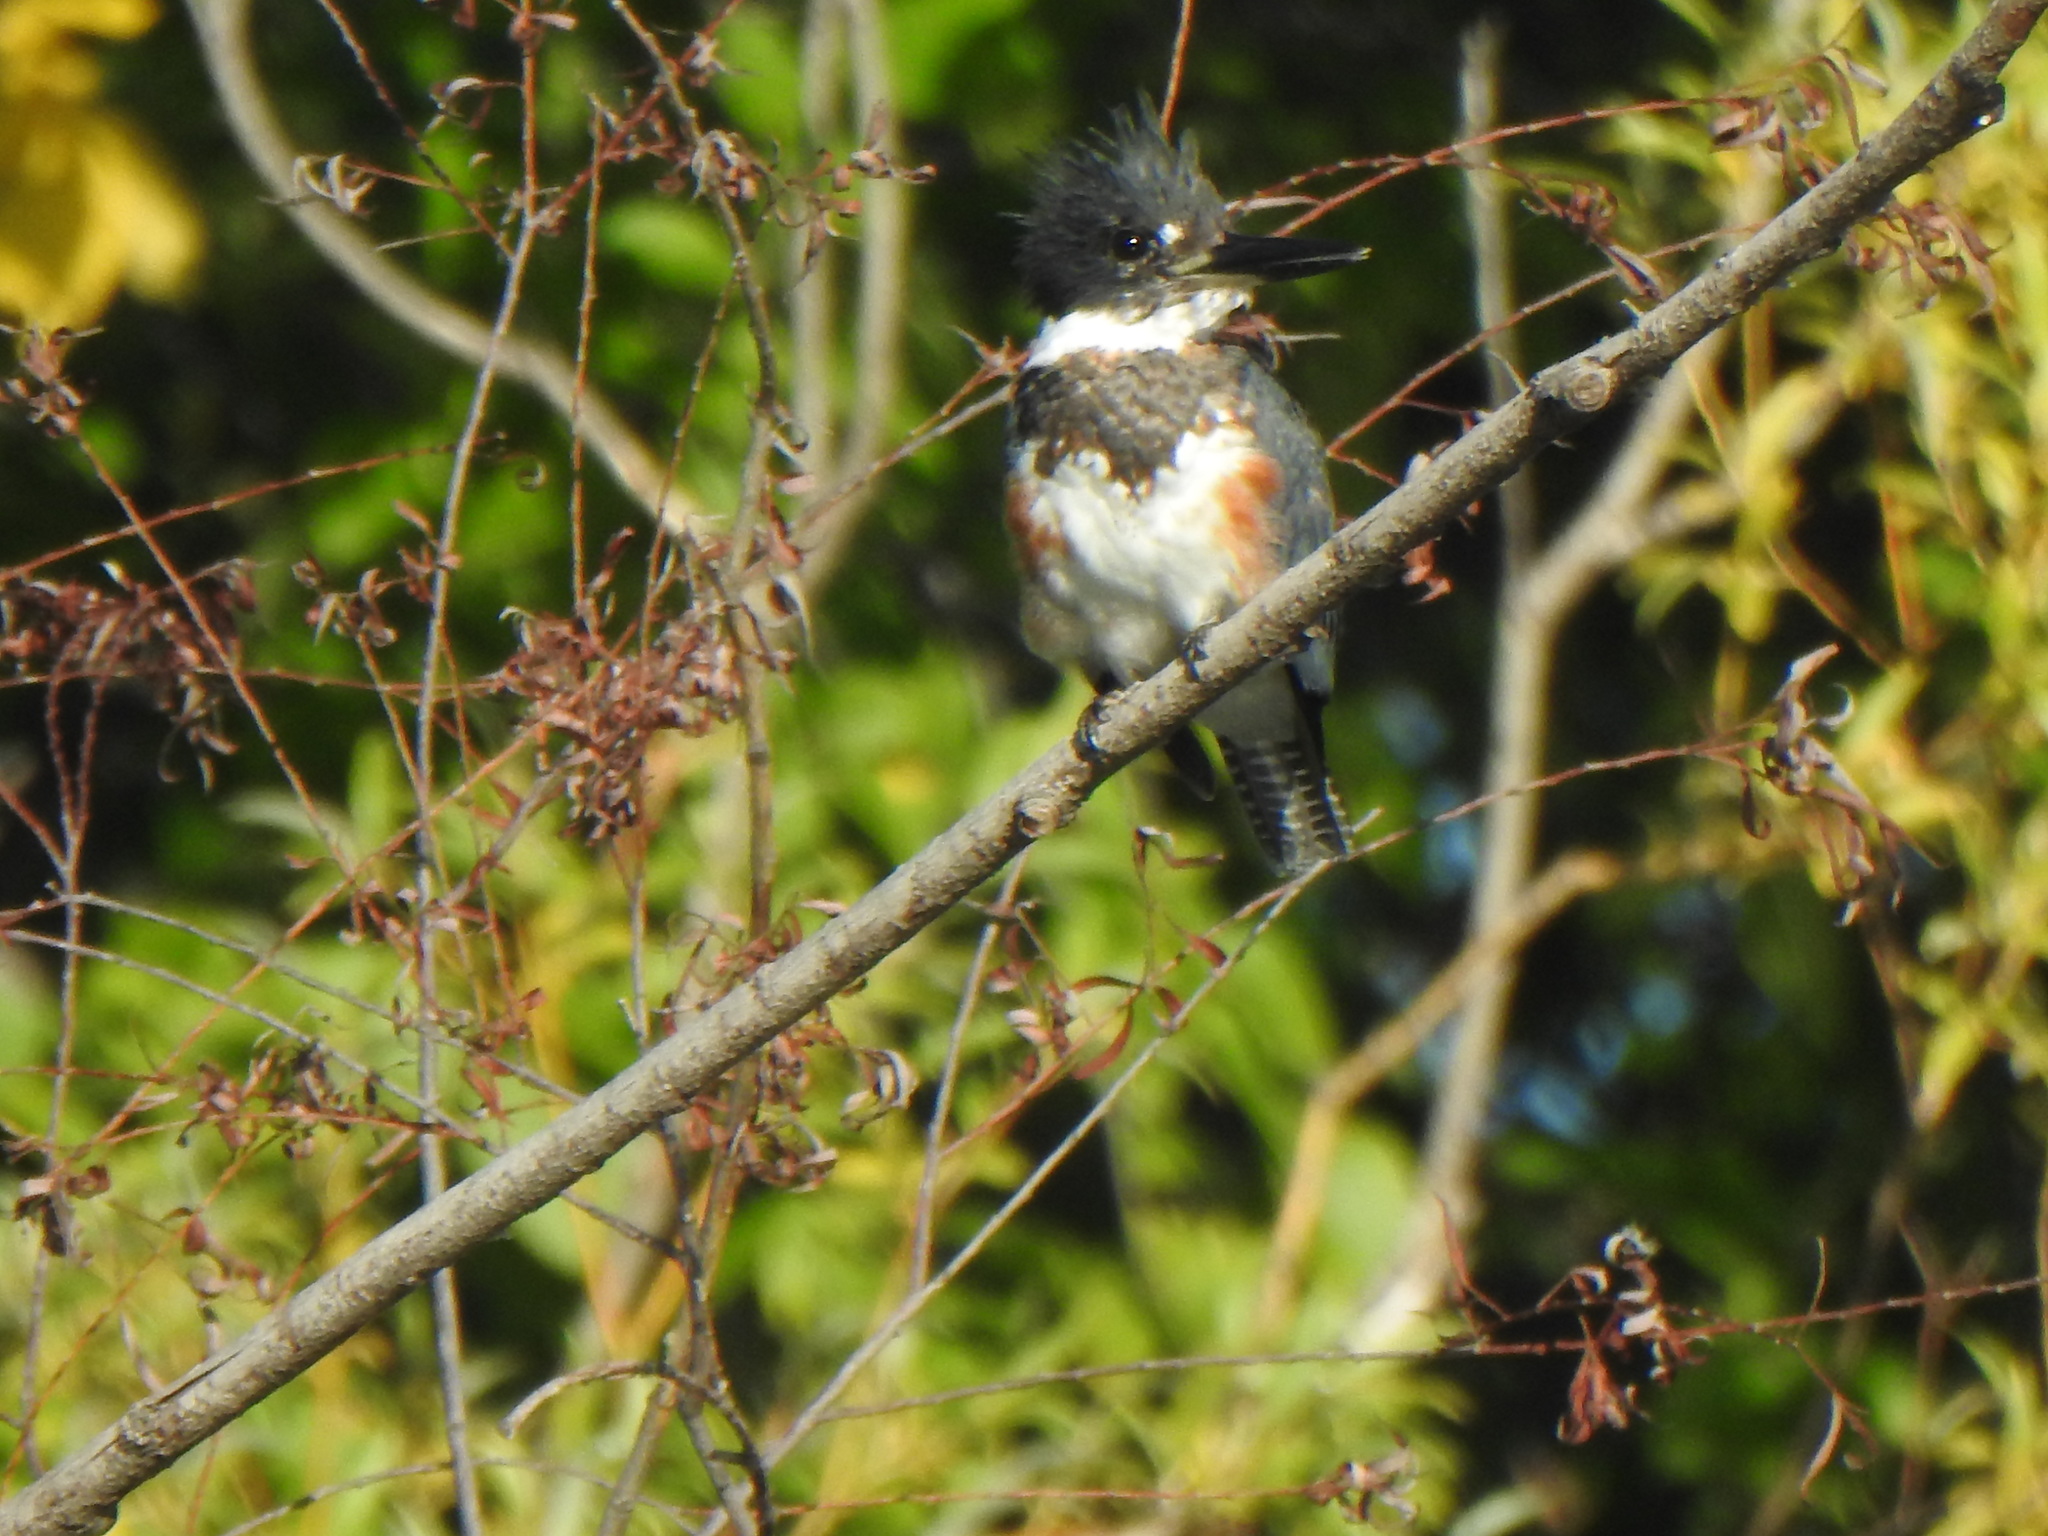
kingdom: Animalia
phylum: Chordata
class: Aves
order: Coraciiformes
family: Alcedinidae
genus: Megaceryle
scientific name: Megaceryle alcyon
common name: Belted kingfisher
